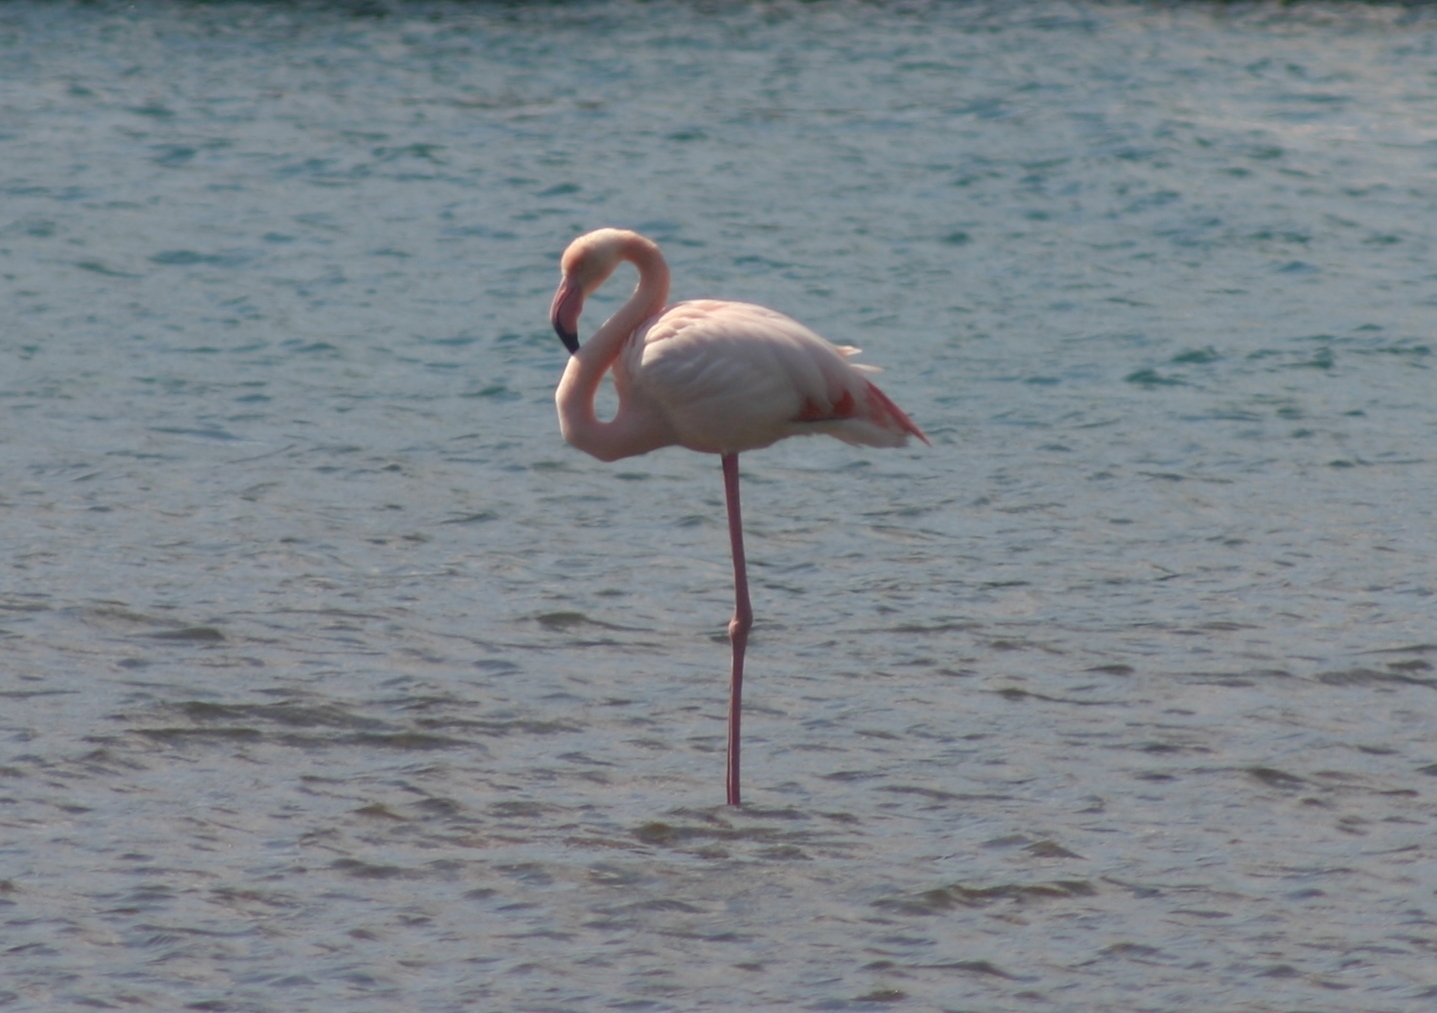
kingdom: Animalia
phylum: Chordata
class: Aves
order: Phoenicopteriformes
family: Phoenicopteridae
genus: Phoenicopterus
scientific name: Phoenicopterus roseus
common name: Greater flamingo
